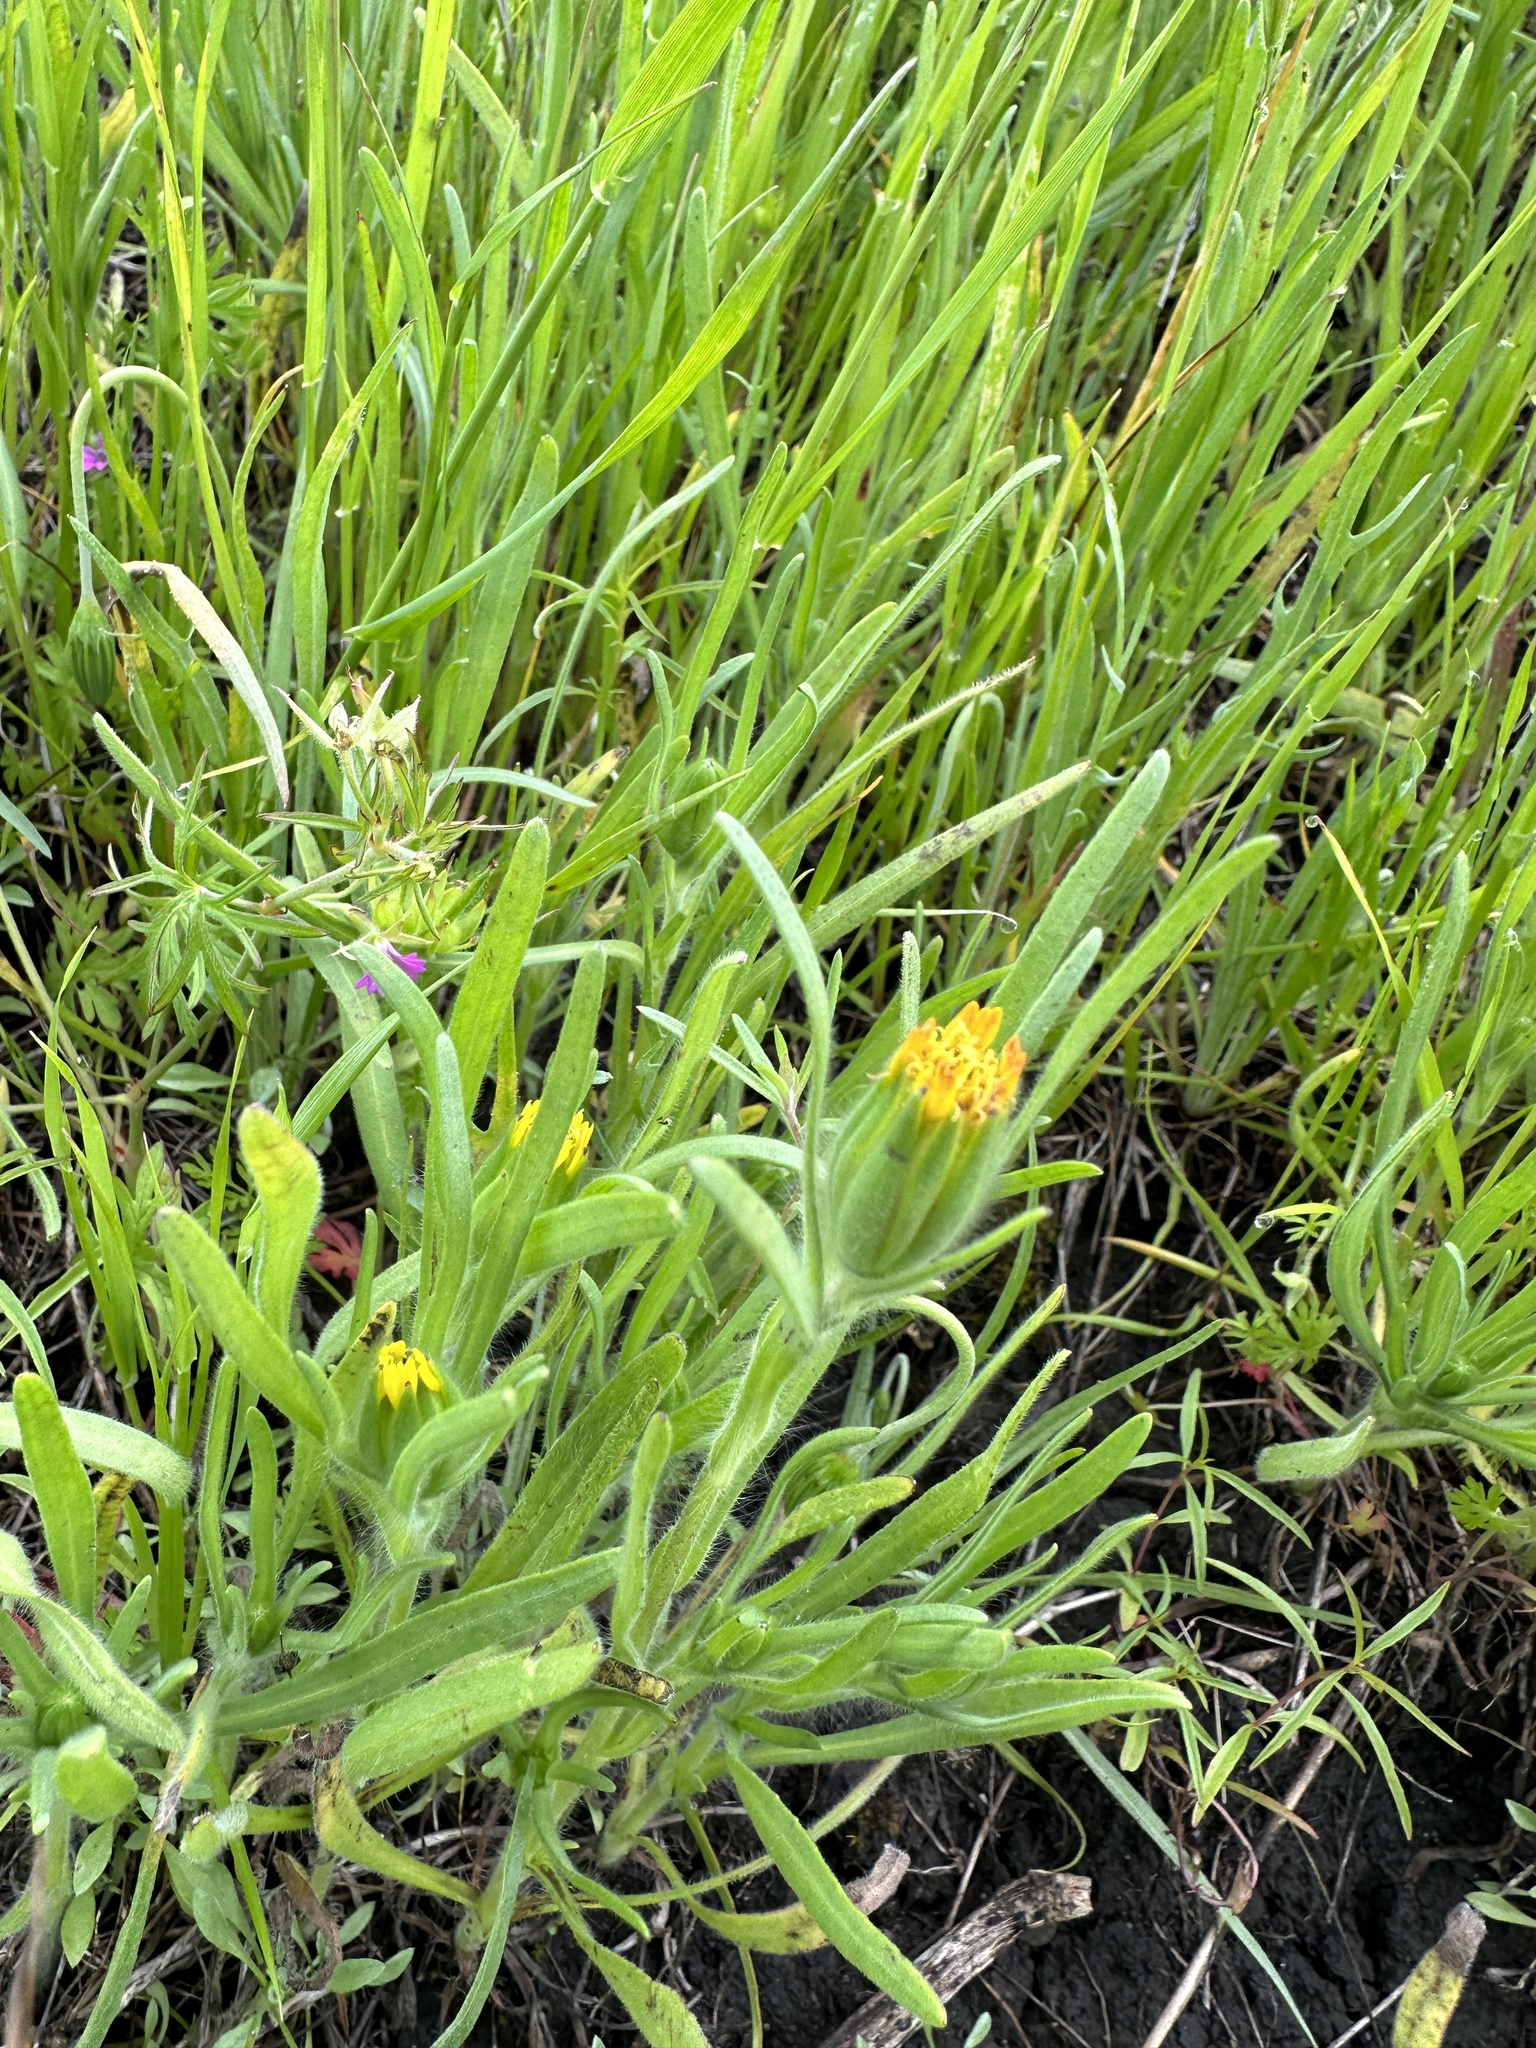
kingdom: Plantae
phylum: Tracheophyta
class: Magnoliopsida
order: Asterales
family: Asteraceae
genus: Achyrachaena
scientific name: Achyrachaena mollis
